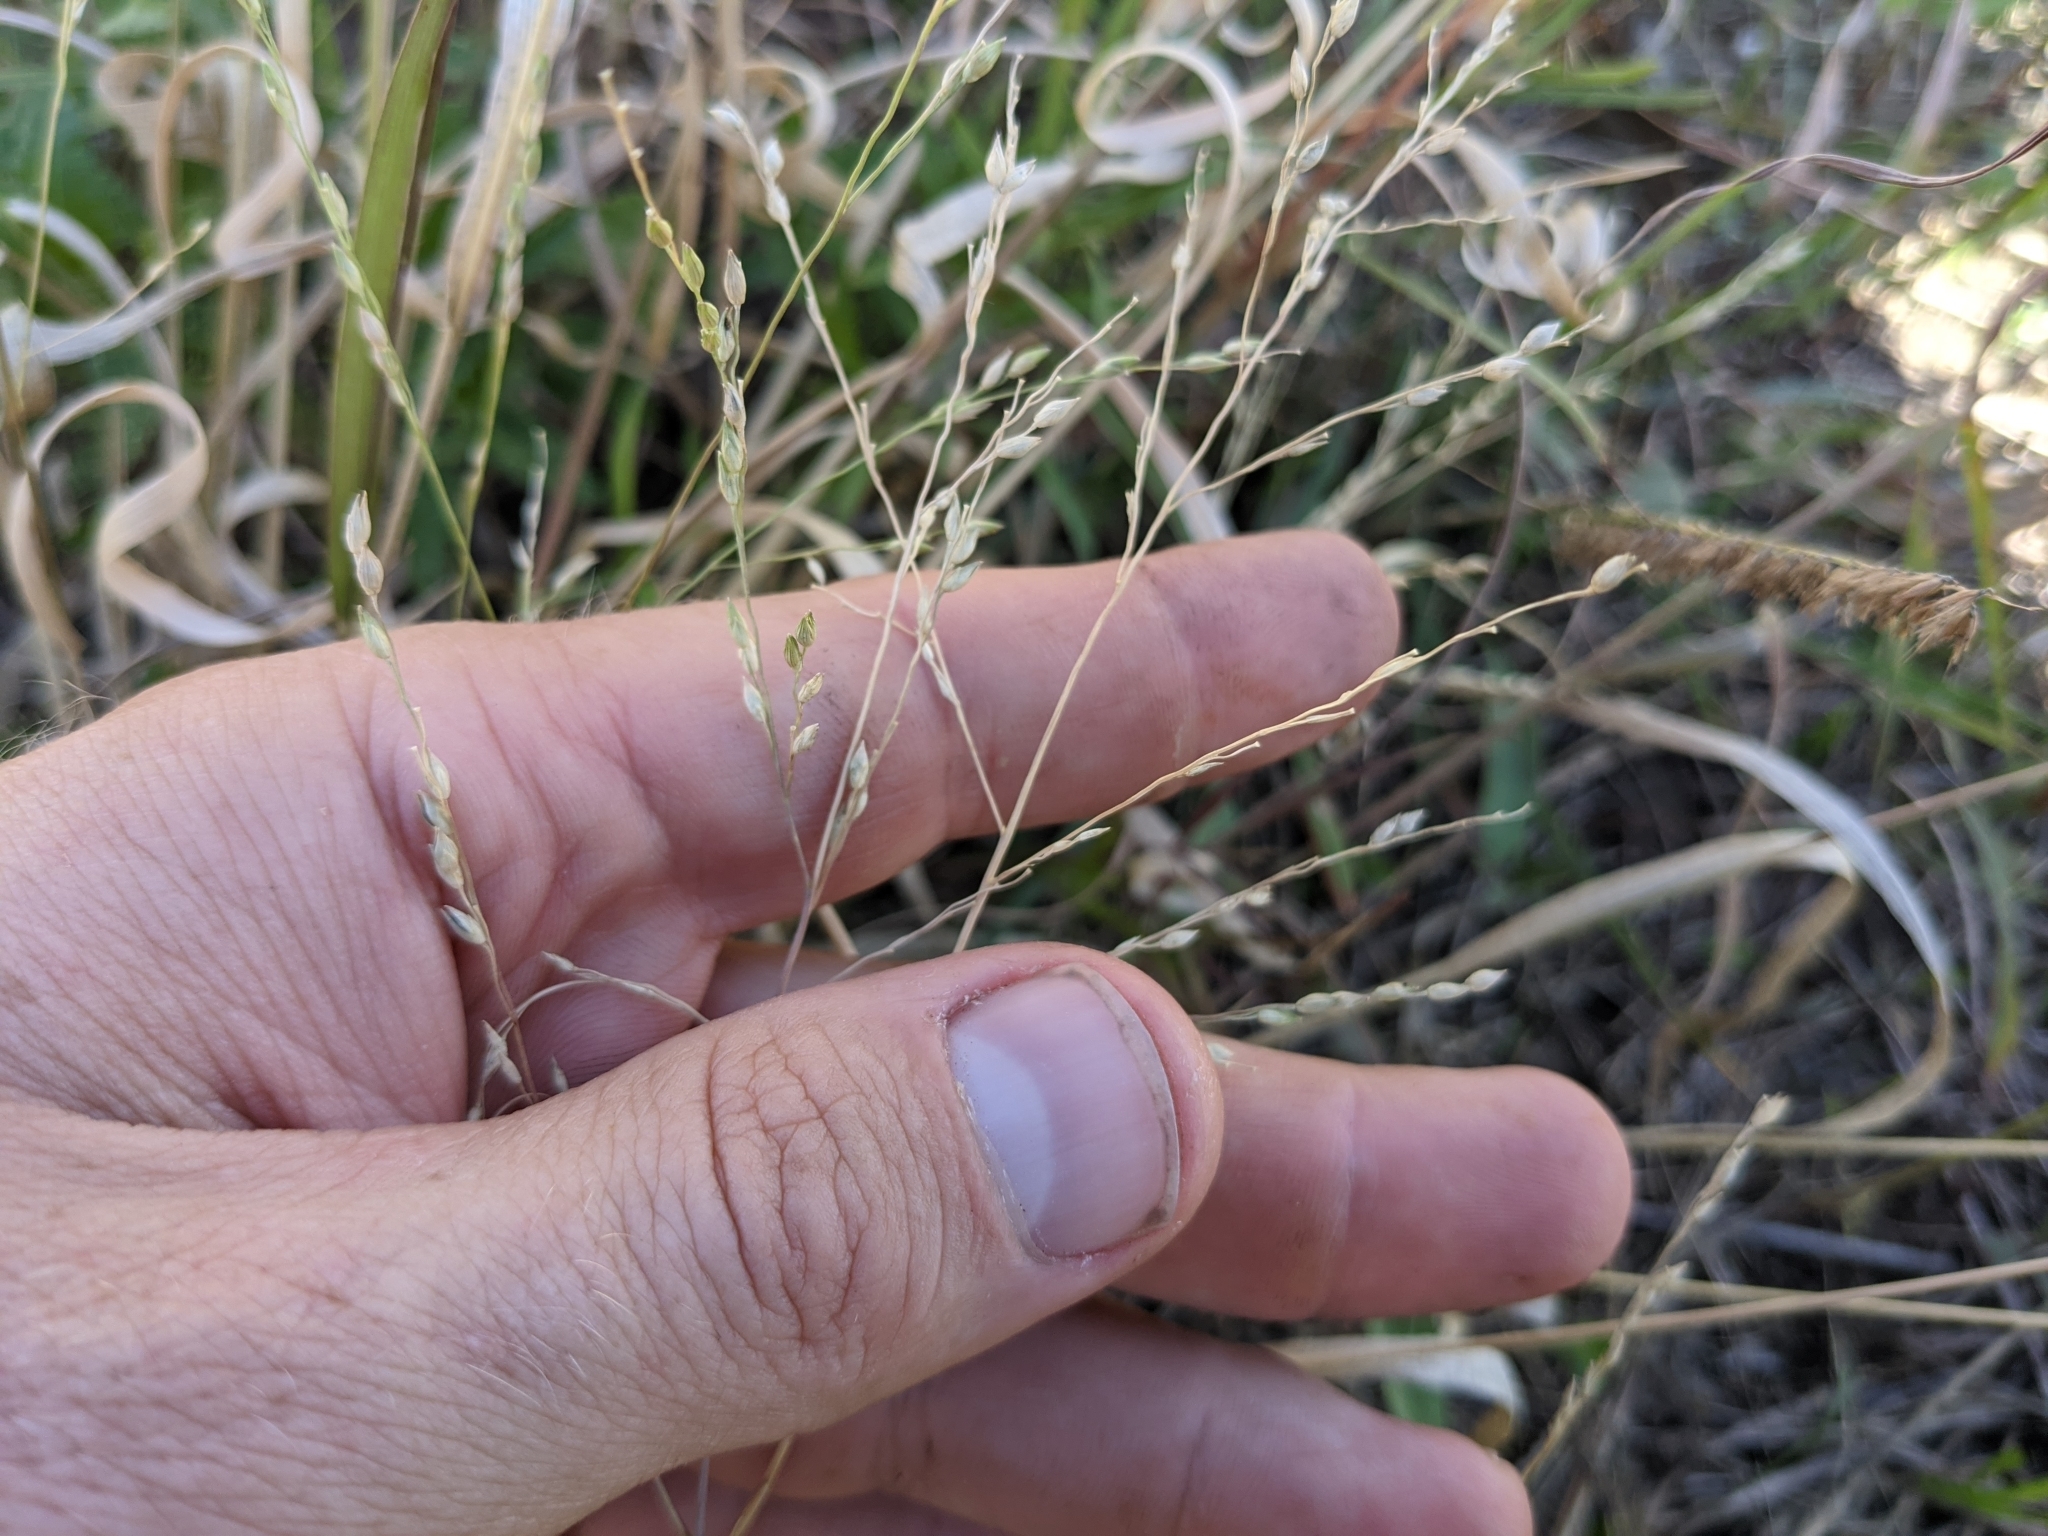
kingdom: Plantae
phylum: Tracheophyta
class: Liliopsida
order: Poales
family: Poaceae
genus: Panicum
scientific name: Panicum hallii
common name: Hall's witchgrass
